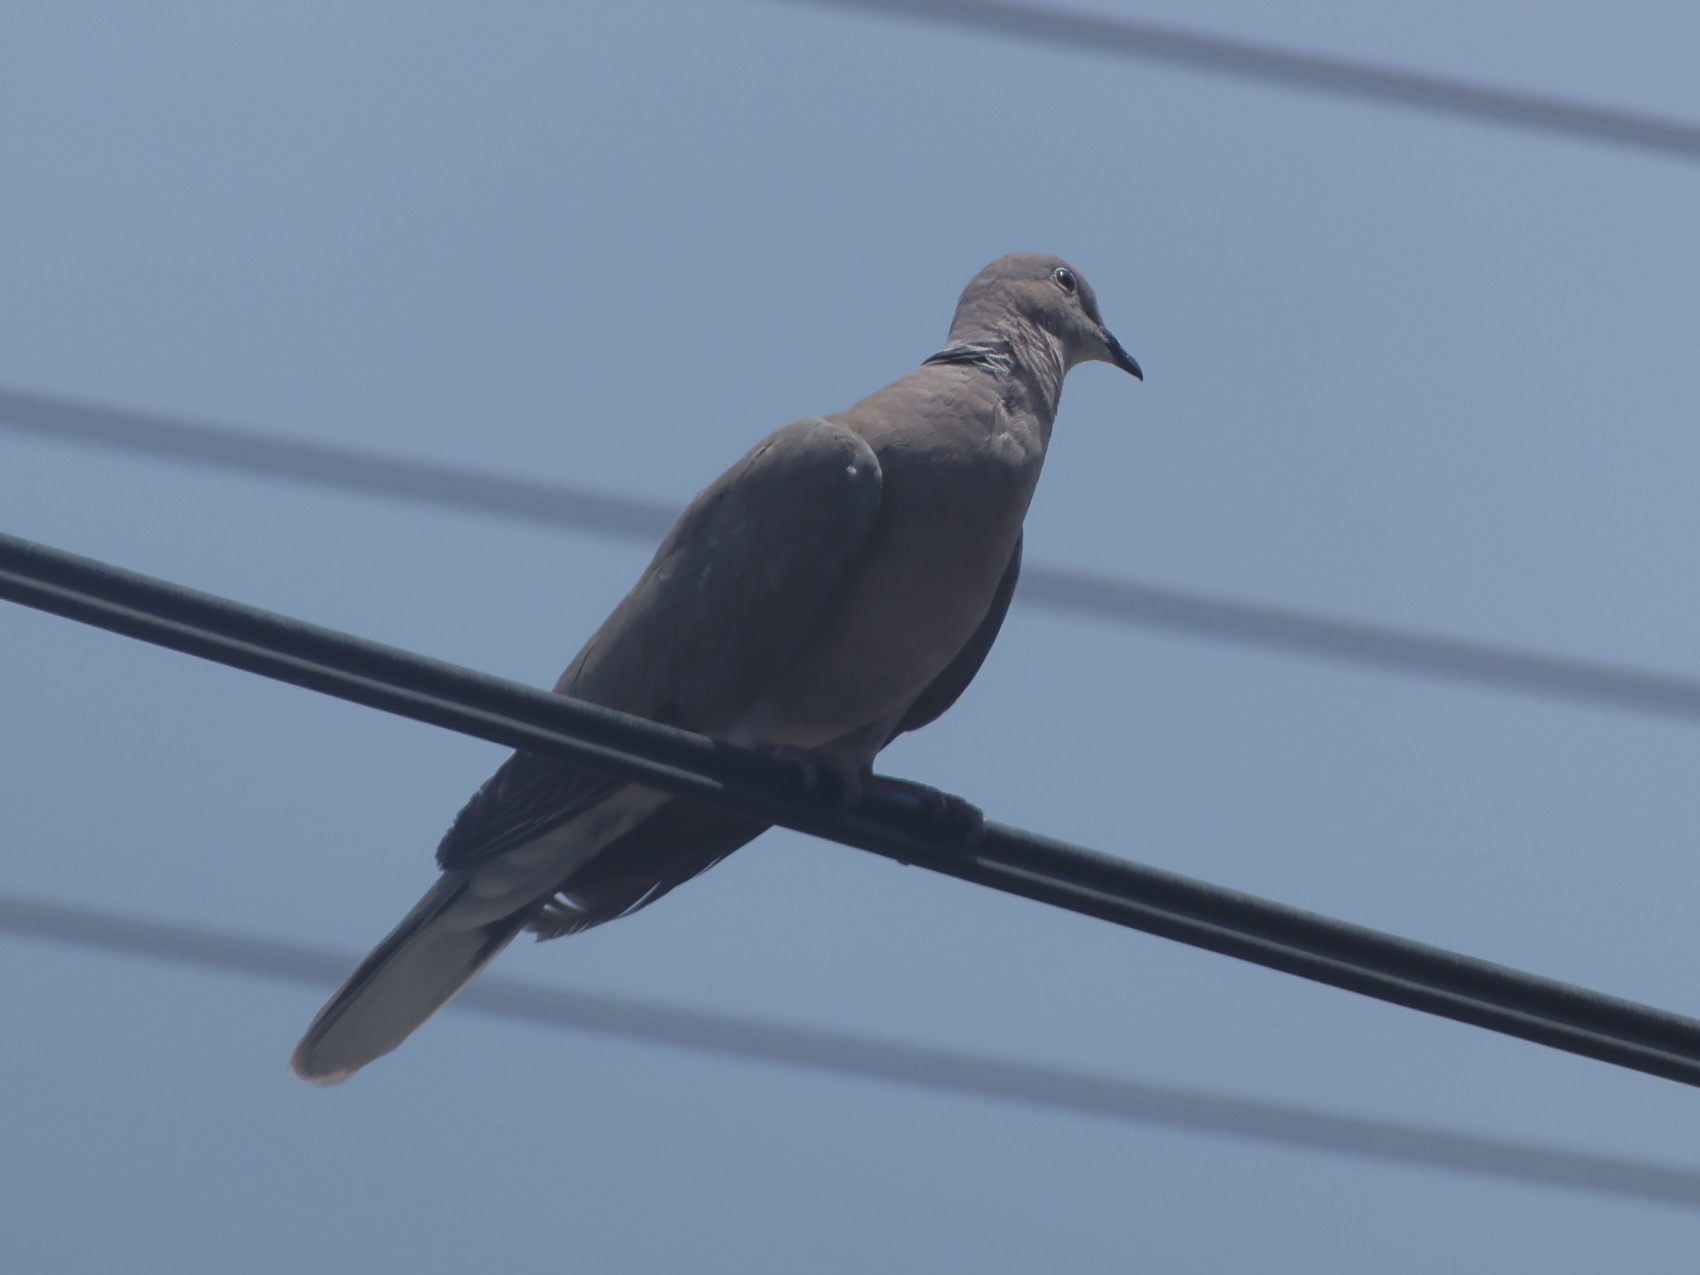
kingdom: Animalia
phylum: Chordata
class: Aves
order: Columbiformes
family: Columbidae
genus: Streptopelia
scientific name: Streptopelia decaocto
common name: Eurasian collared dove
